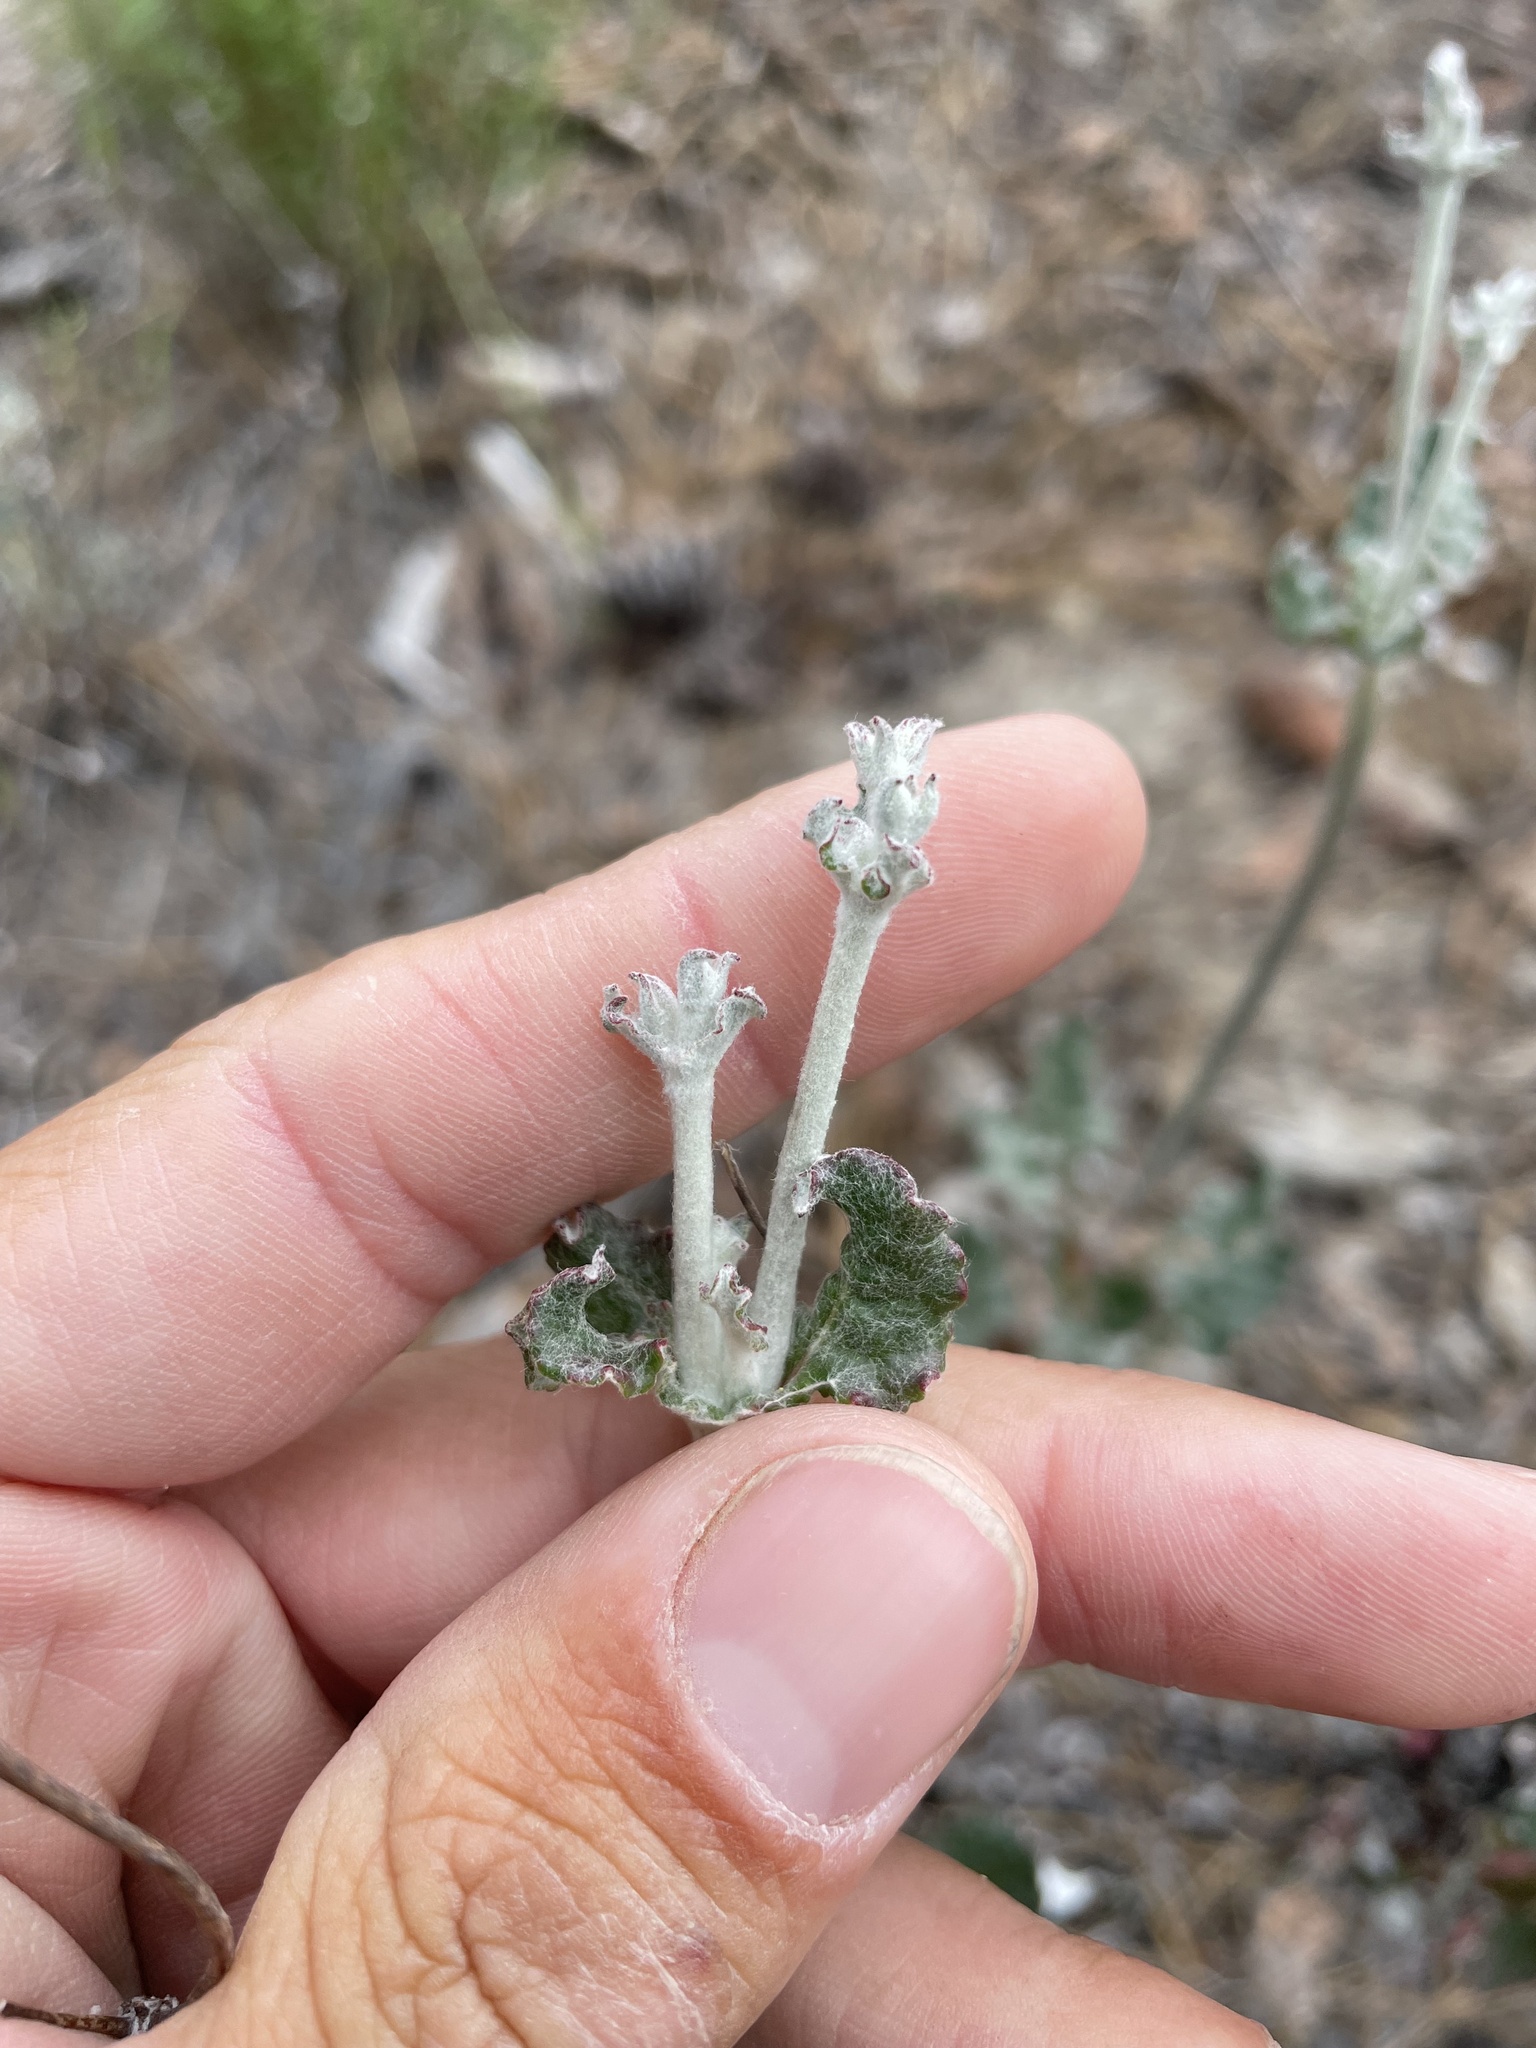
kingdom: Plantae
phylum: Tracheophyta
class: Magnoliopsida
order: Caryophyllales
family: Polygonaceae
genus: Eriogonum
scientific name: Eriogonum nudum
